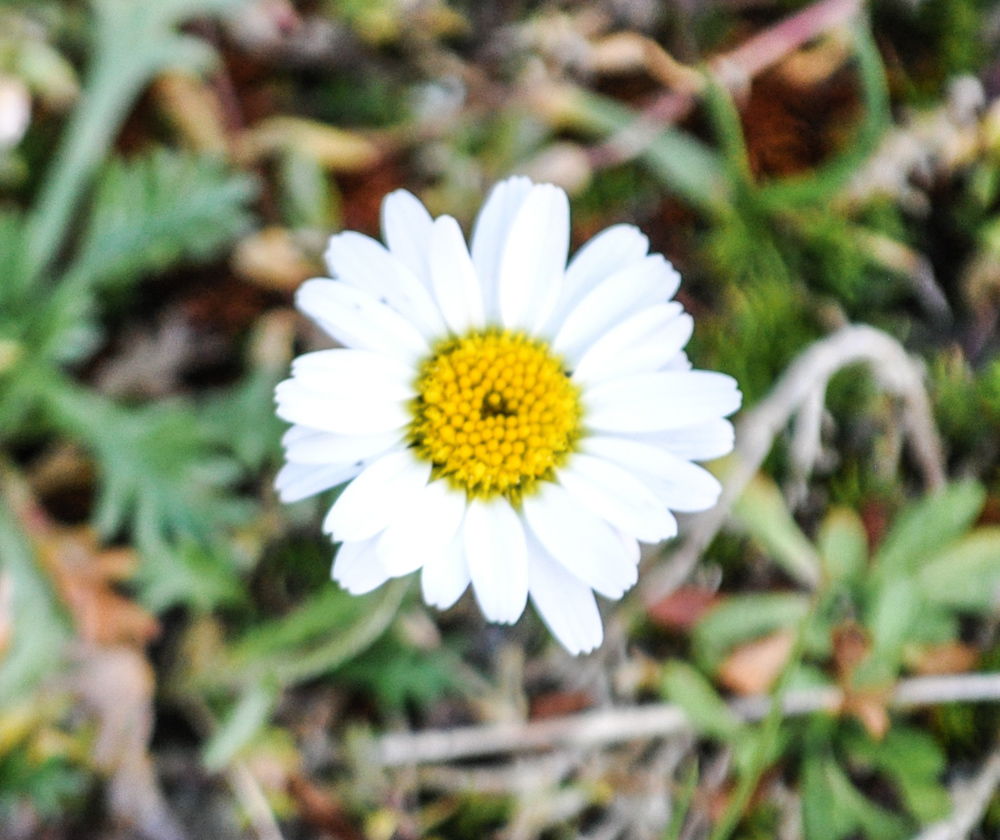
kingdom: Plantae
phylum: Tracheophyta
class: Magnoliopsida
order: Asterales
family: Asteraceae
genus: Leucanthemopsis
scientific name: Leucanthemopsis alpina
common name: Alpine moon daisy
